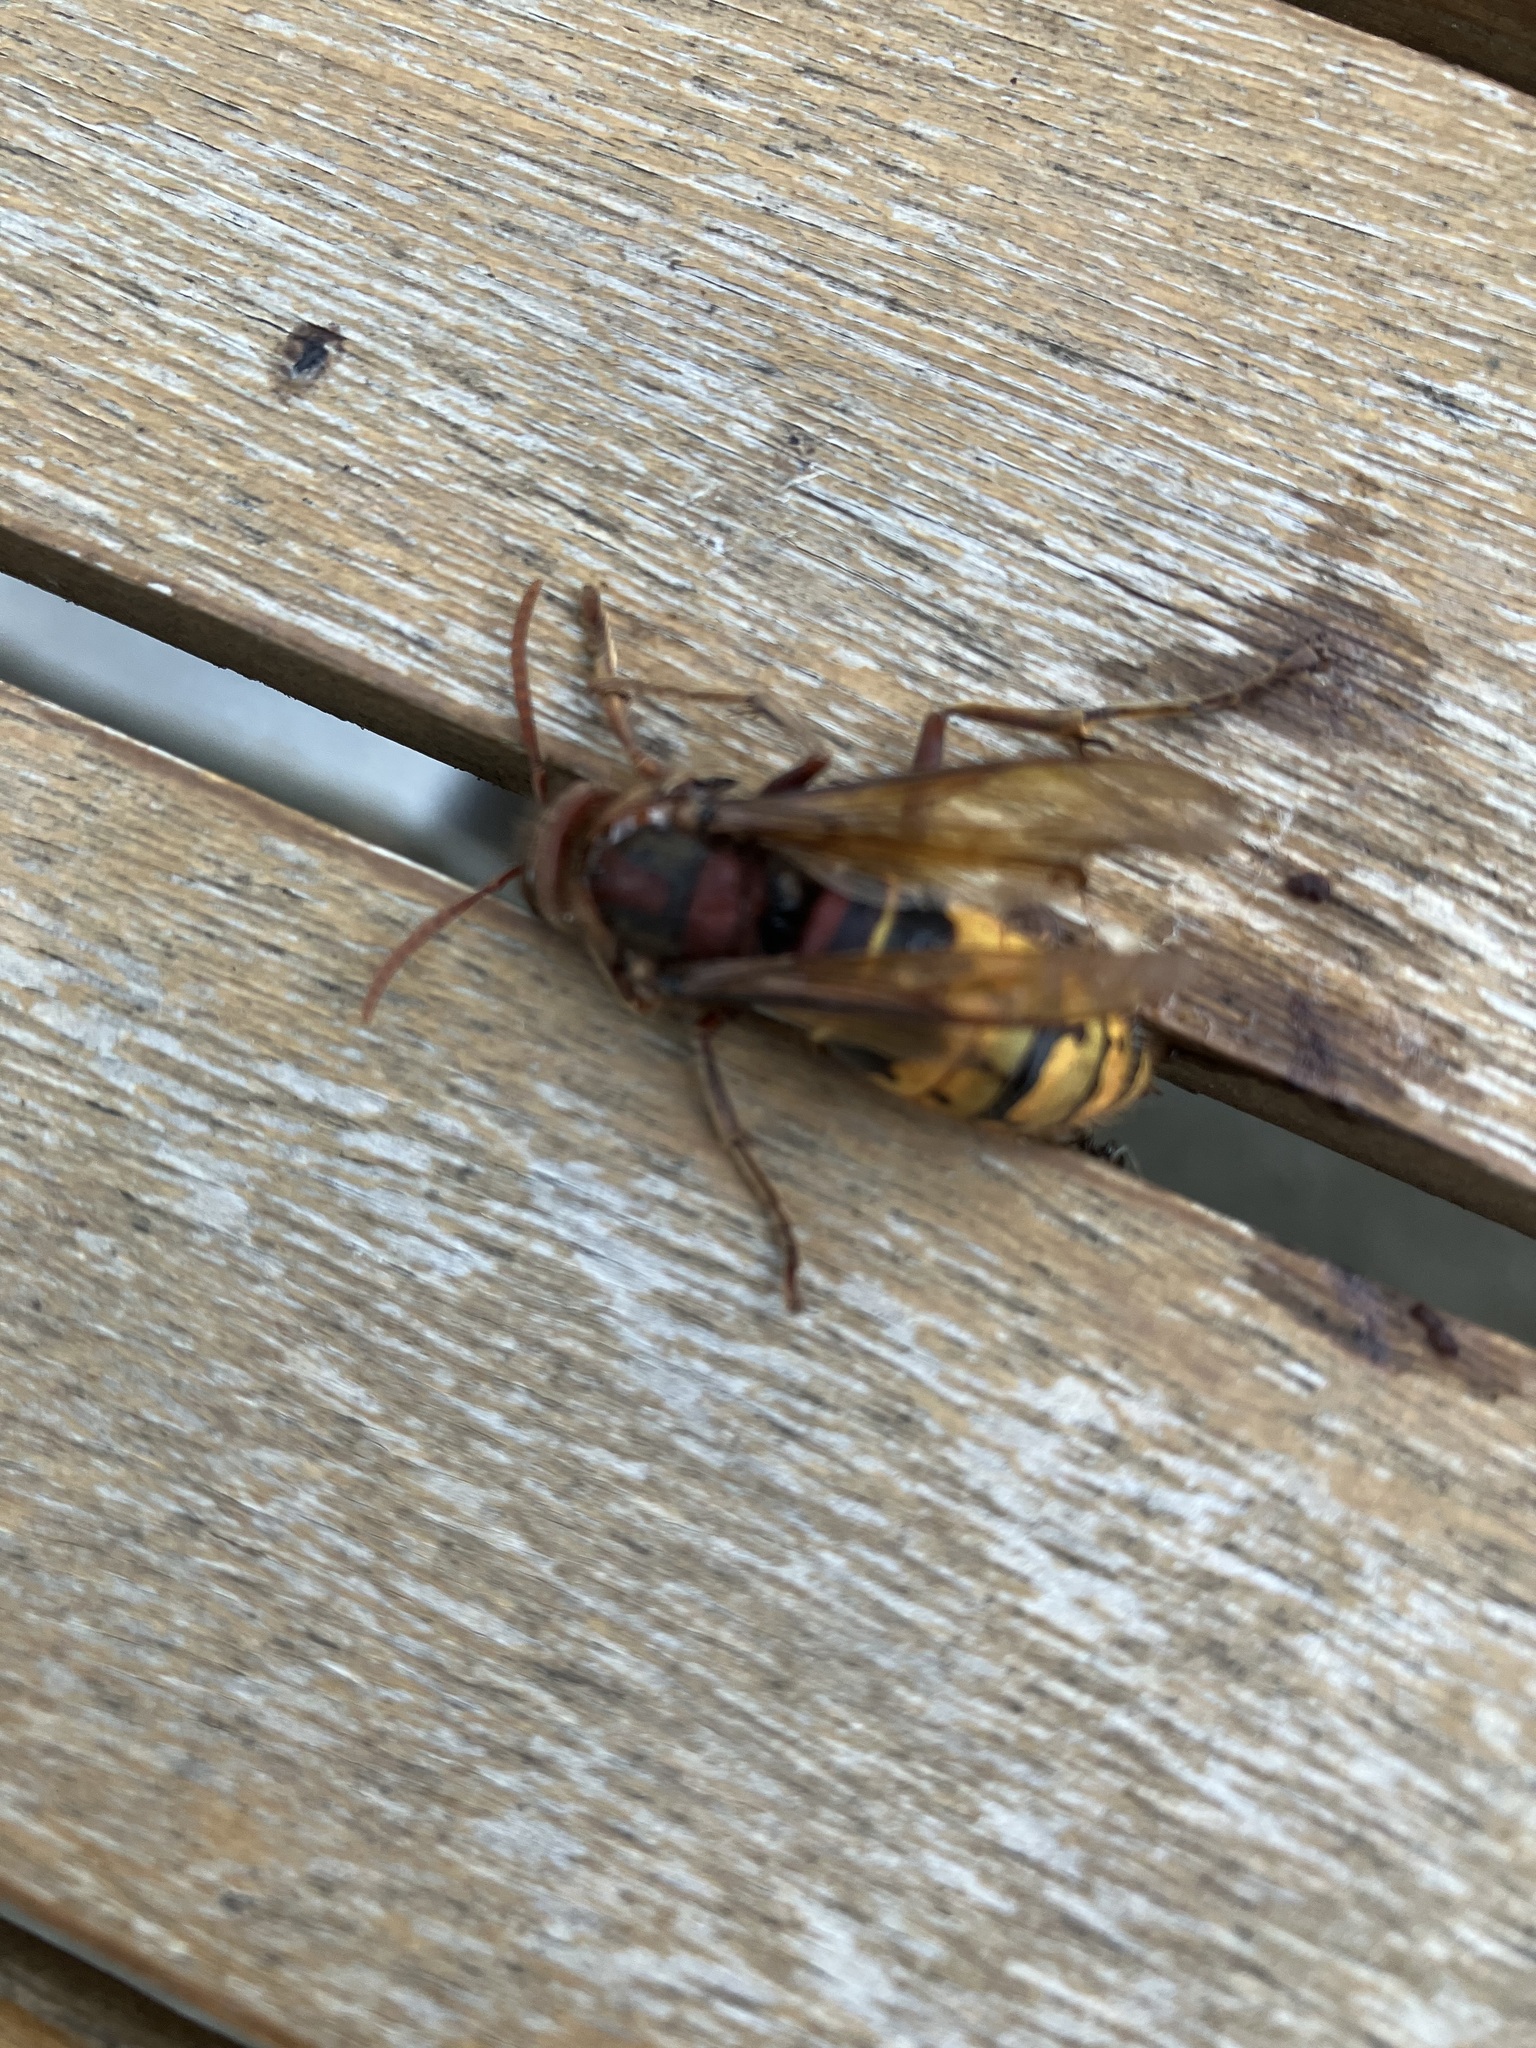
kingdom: Animalia
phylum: Arthropoda
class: Insecta
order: Hymenoptera
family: Vespidae
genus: Vespa
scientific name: Vespa crabro
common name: Hornet
